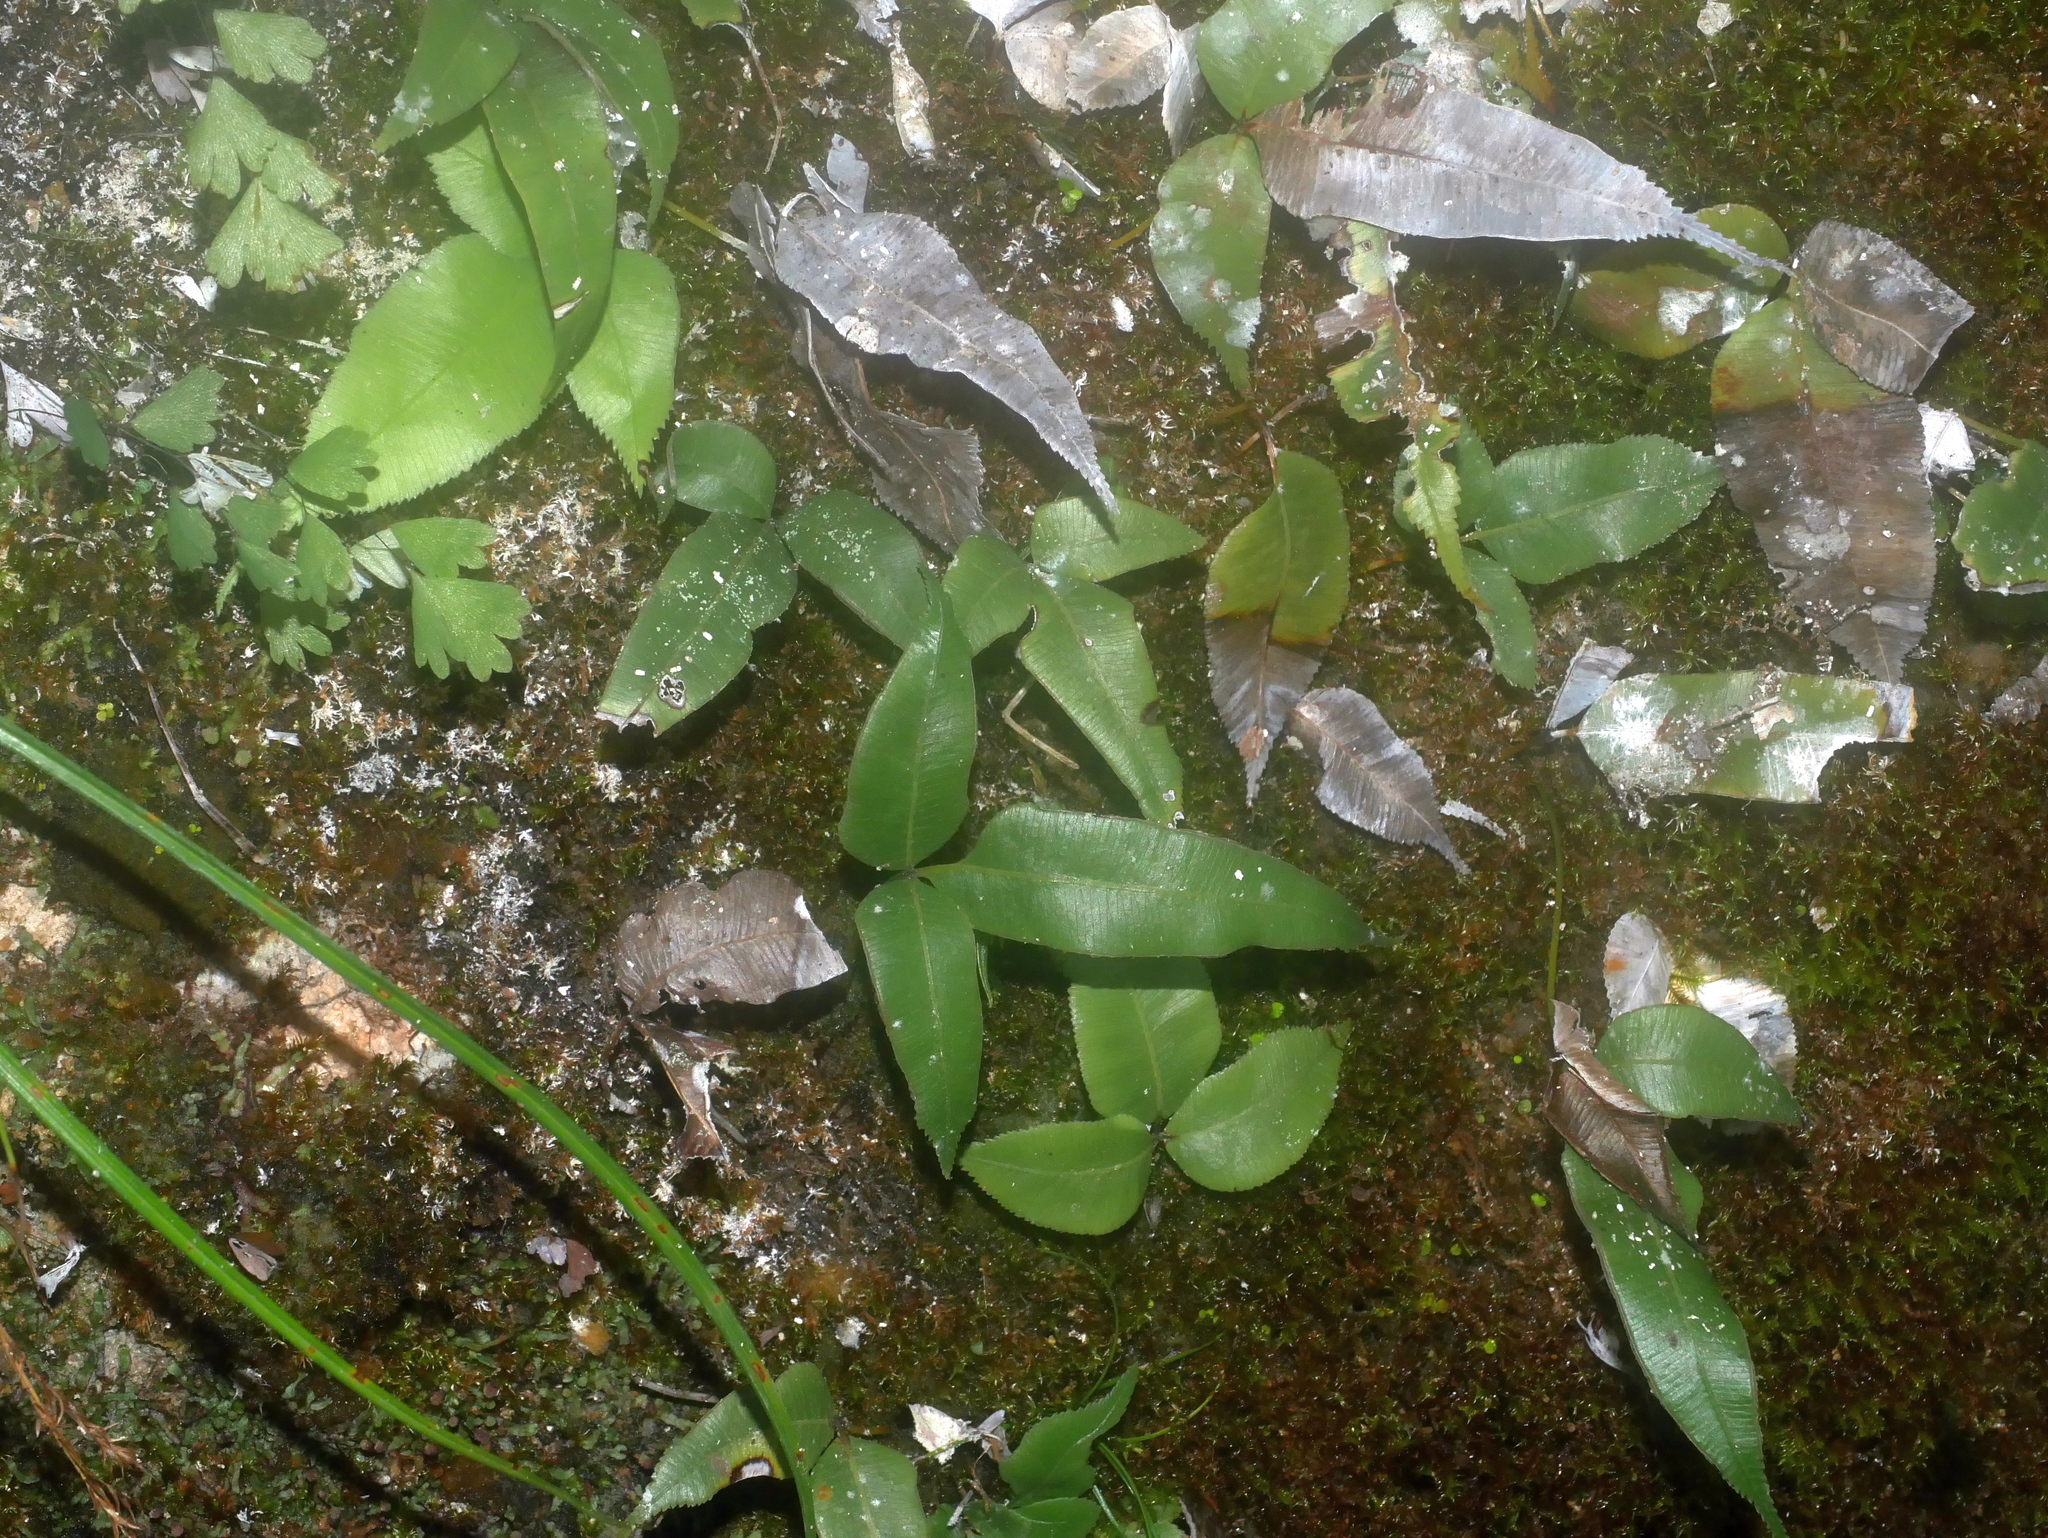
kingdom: Plantae
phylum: Tracheophyta
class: Polypodiopsida
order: Polypodiales
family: Pteridaceae
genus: Pteris
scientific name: Pteris deltodon
